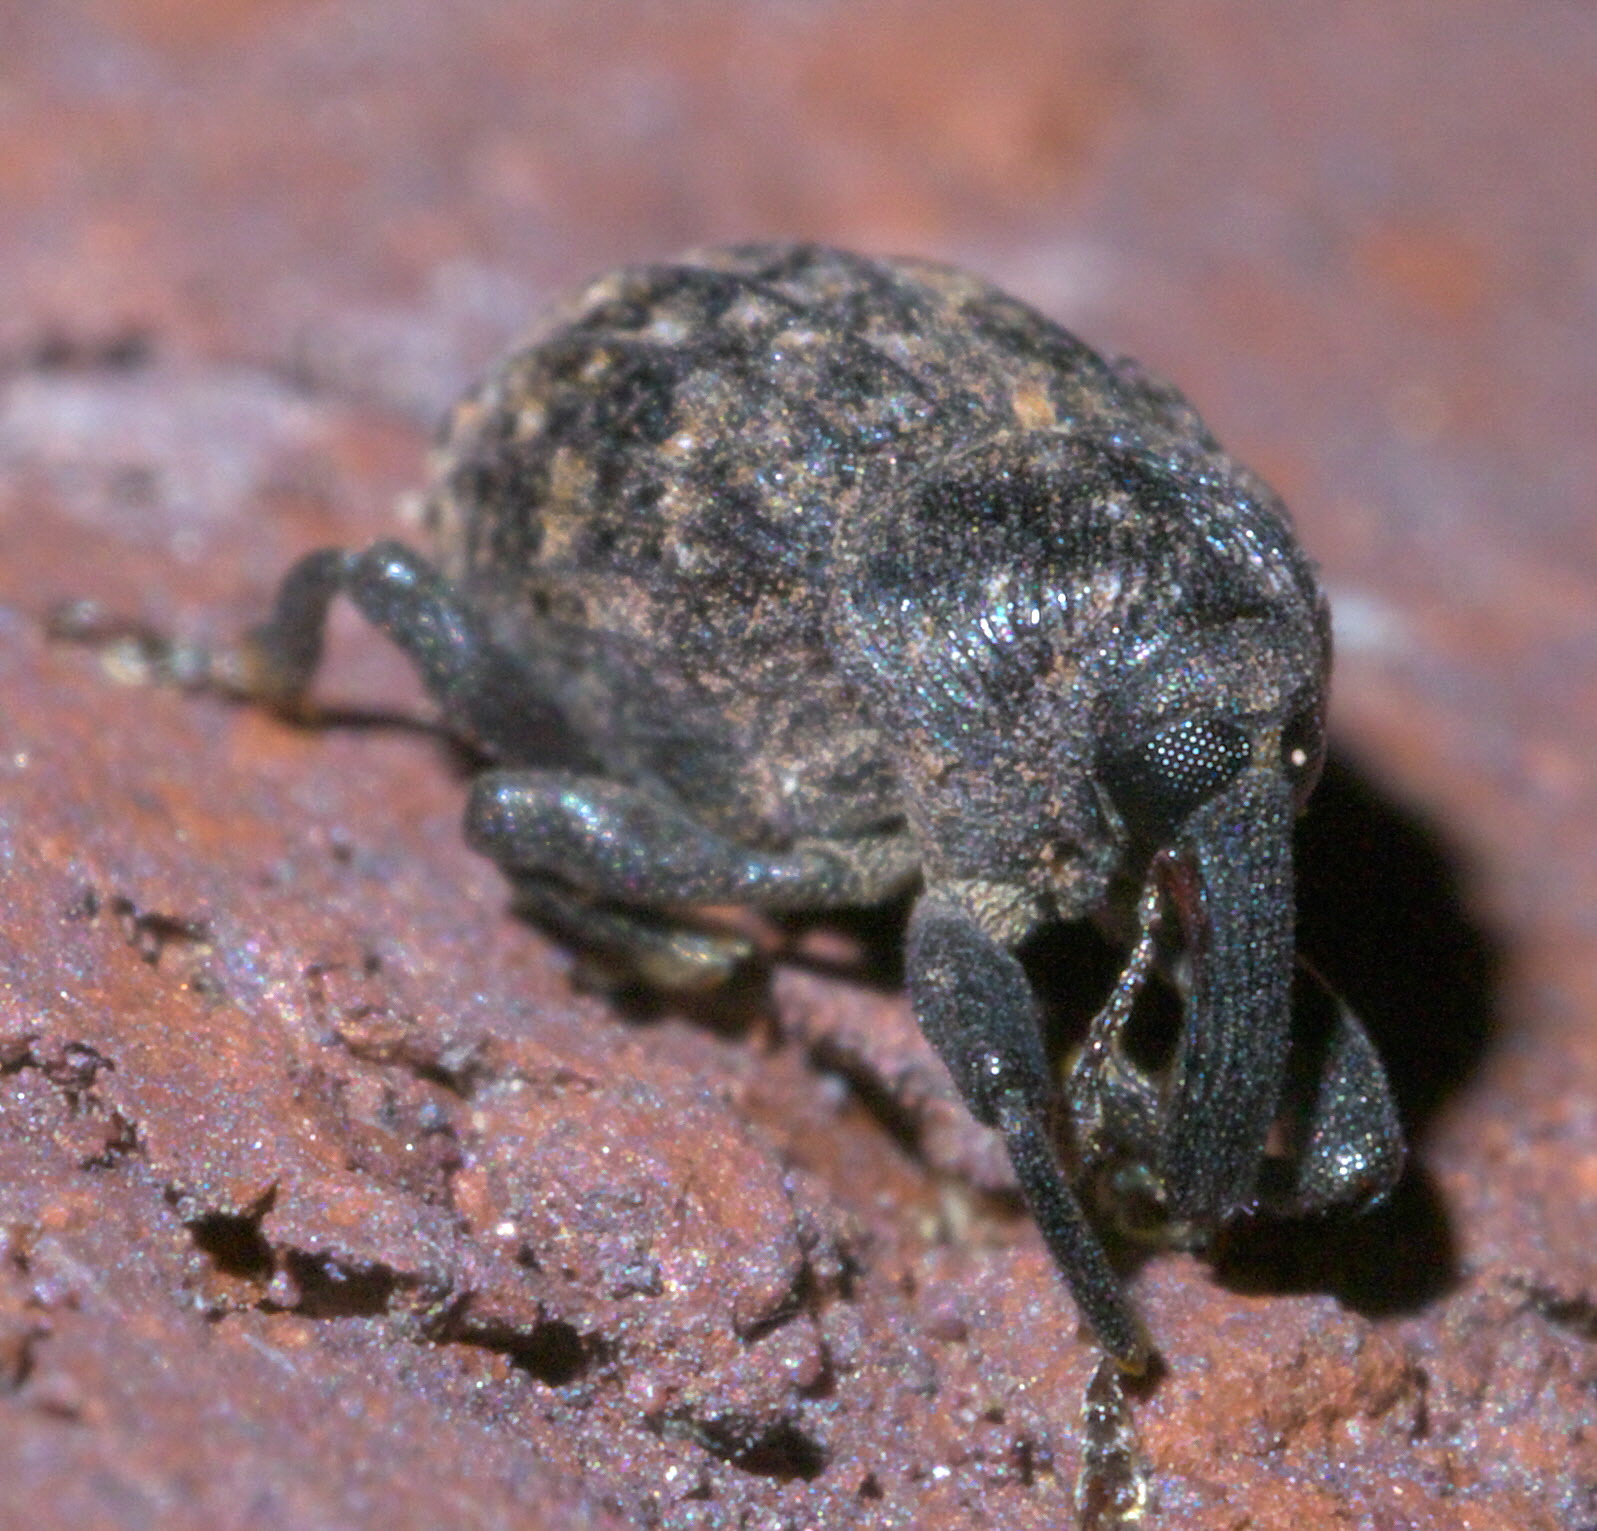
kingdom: Animalia
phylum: Arthropoda
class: Insecta
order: Coleoptera
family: Curculionidae
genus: Rhyssomatus
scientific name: Rhyssomatus palmacollis
